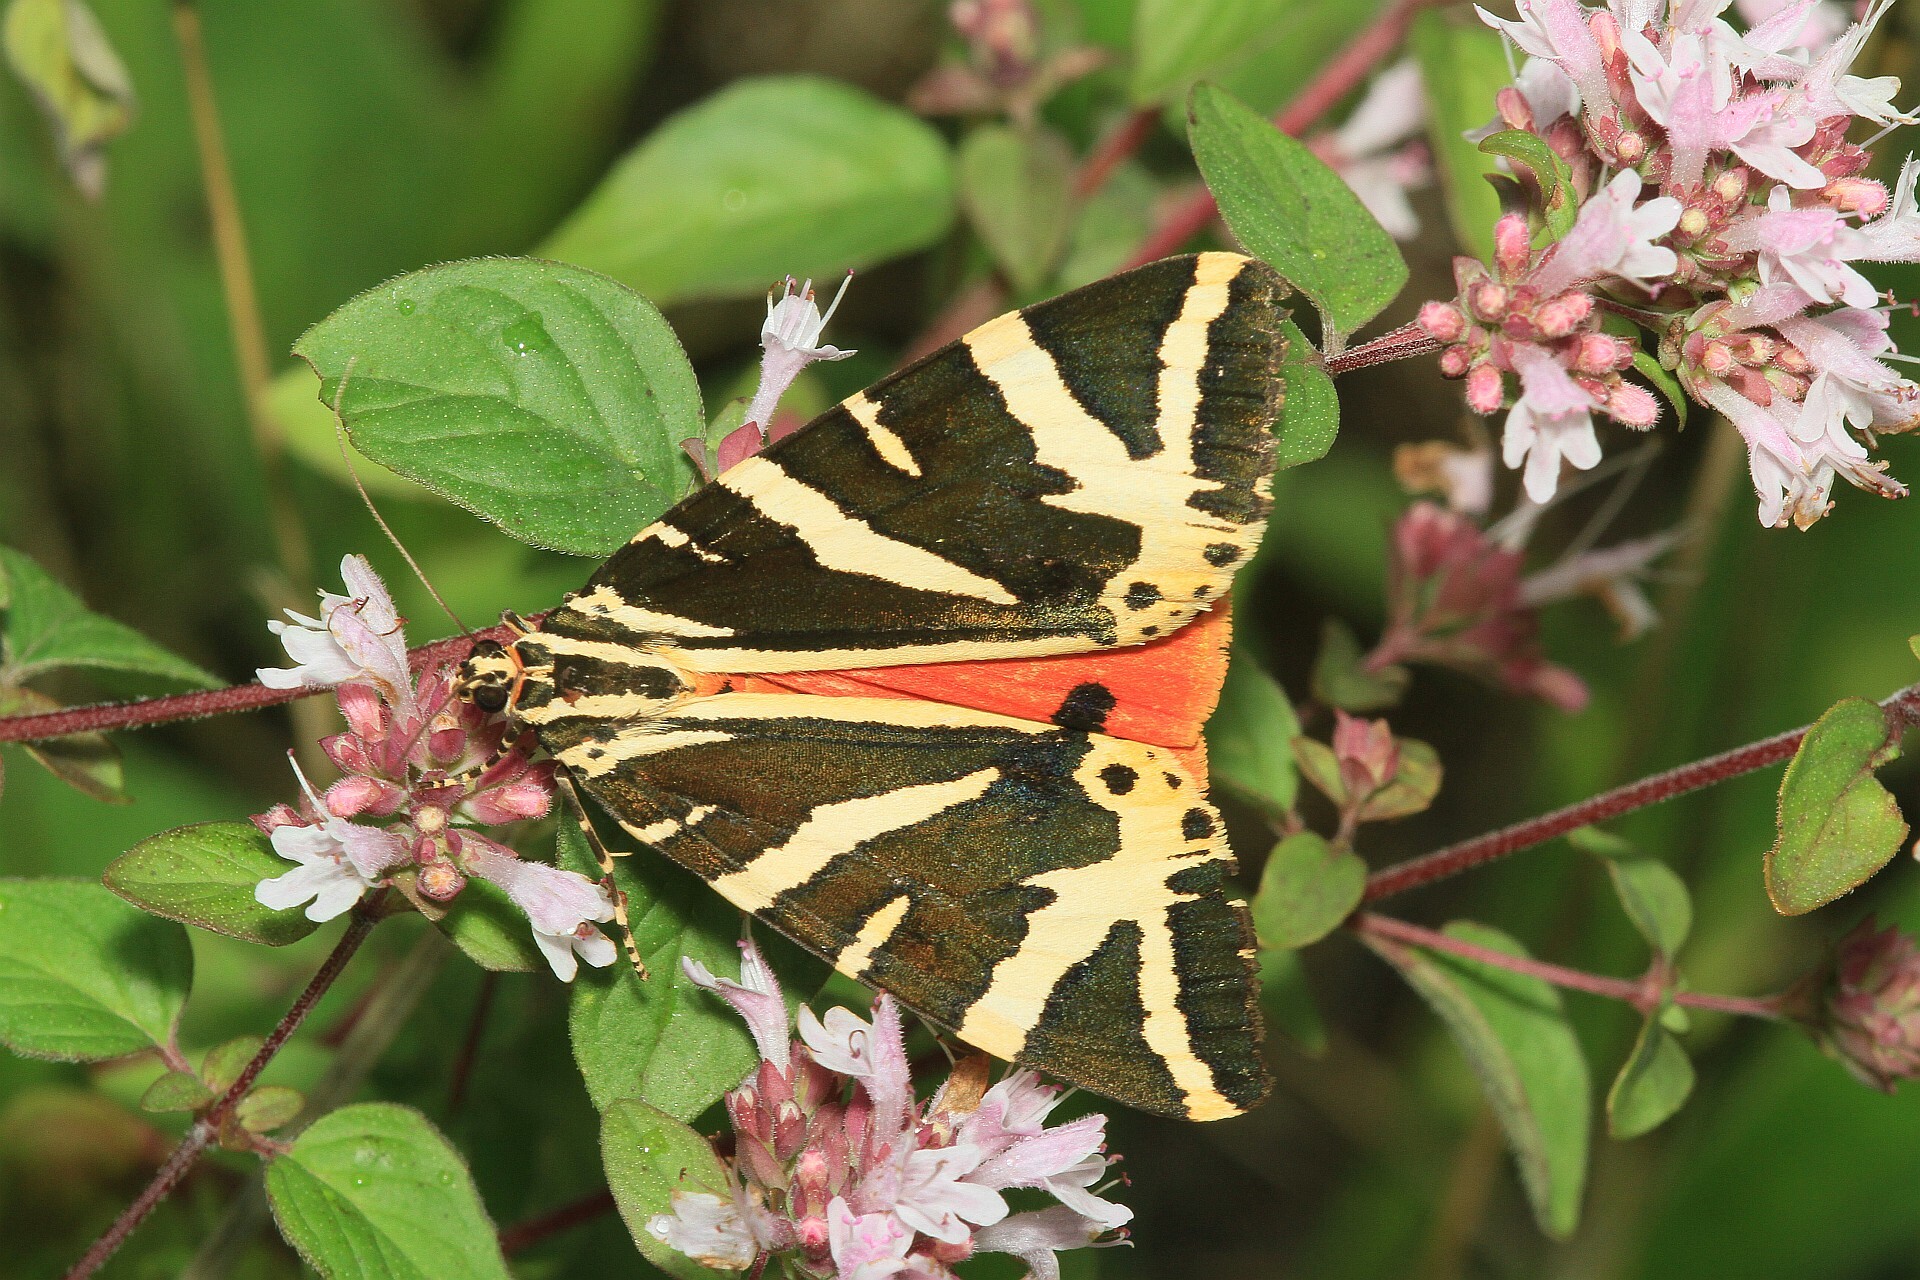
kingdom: Animalia
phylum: Arthropoda
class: Insecta
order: Lepidoptera
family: Erebidae
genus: Euplagia
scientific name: Euplagia quadripunctaria
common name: Jersey tiger
